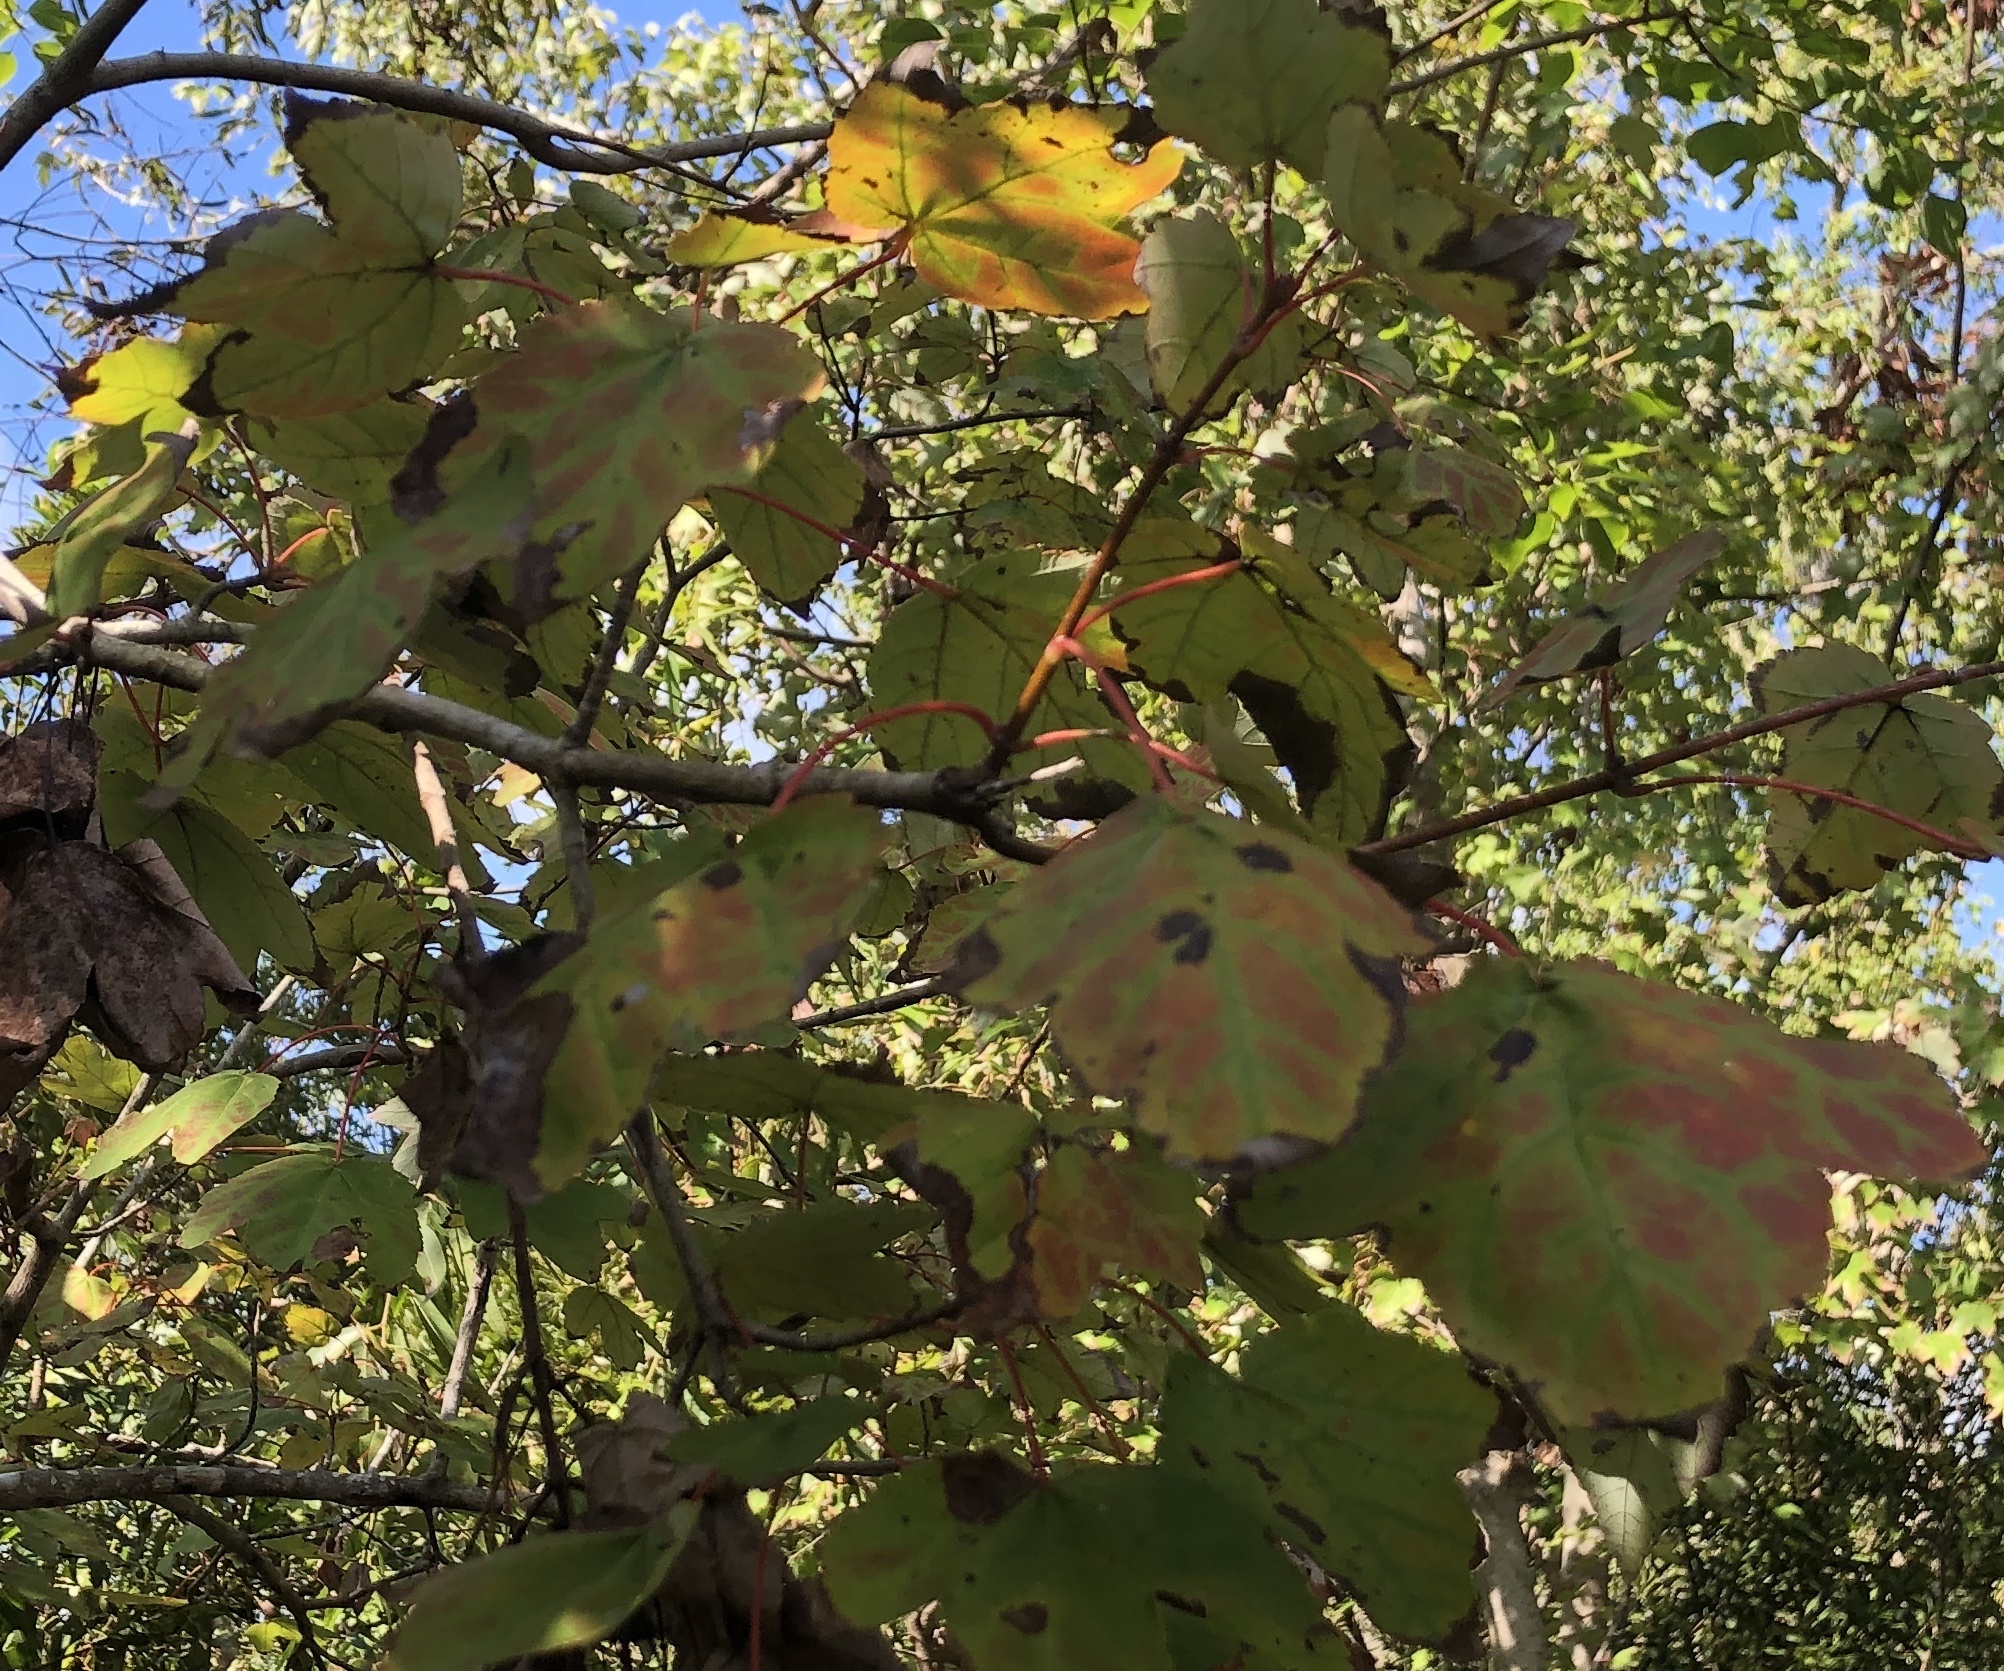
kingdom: Plantae
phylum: Tracheophyta
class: Magnoliopsida
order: Sapindales
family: Sapindaceae
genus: Acer
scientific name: Acer rubrum
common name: Red maple
